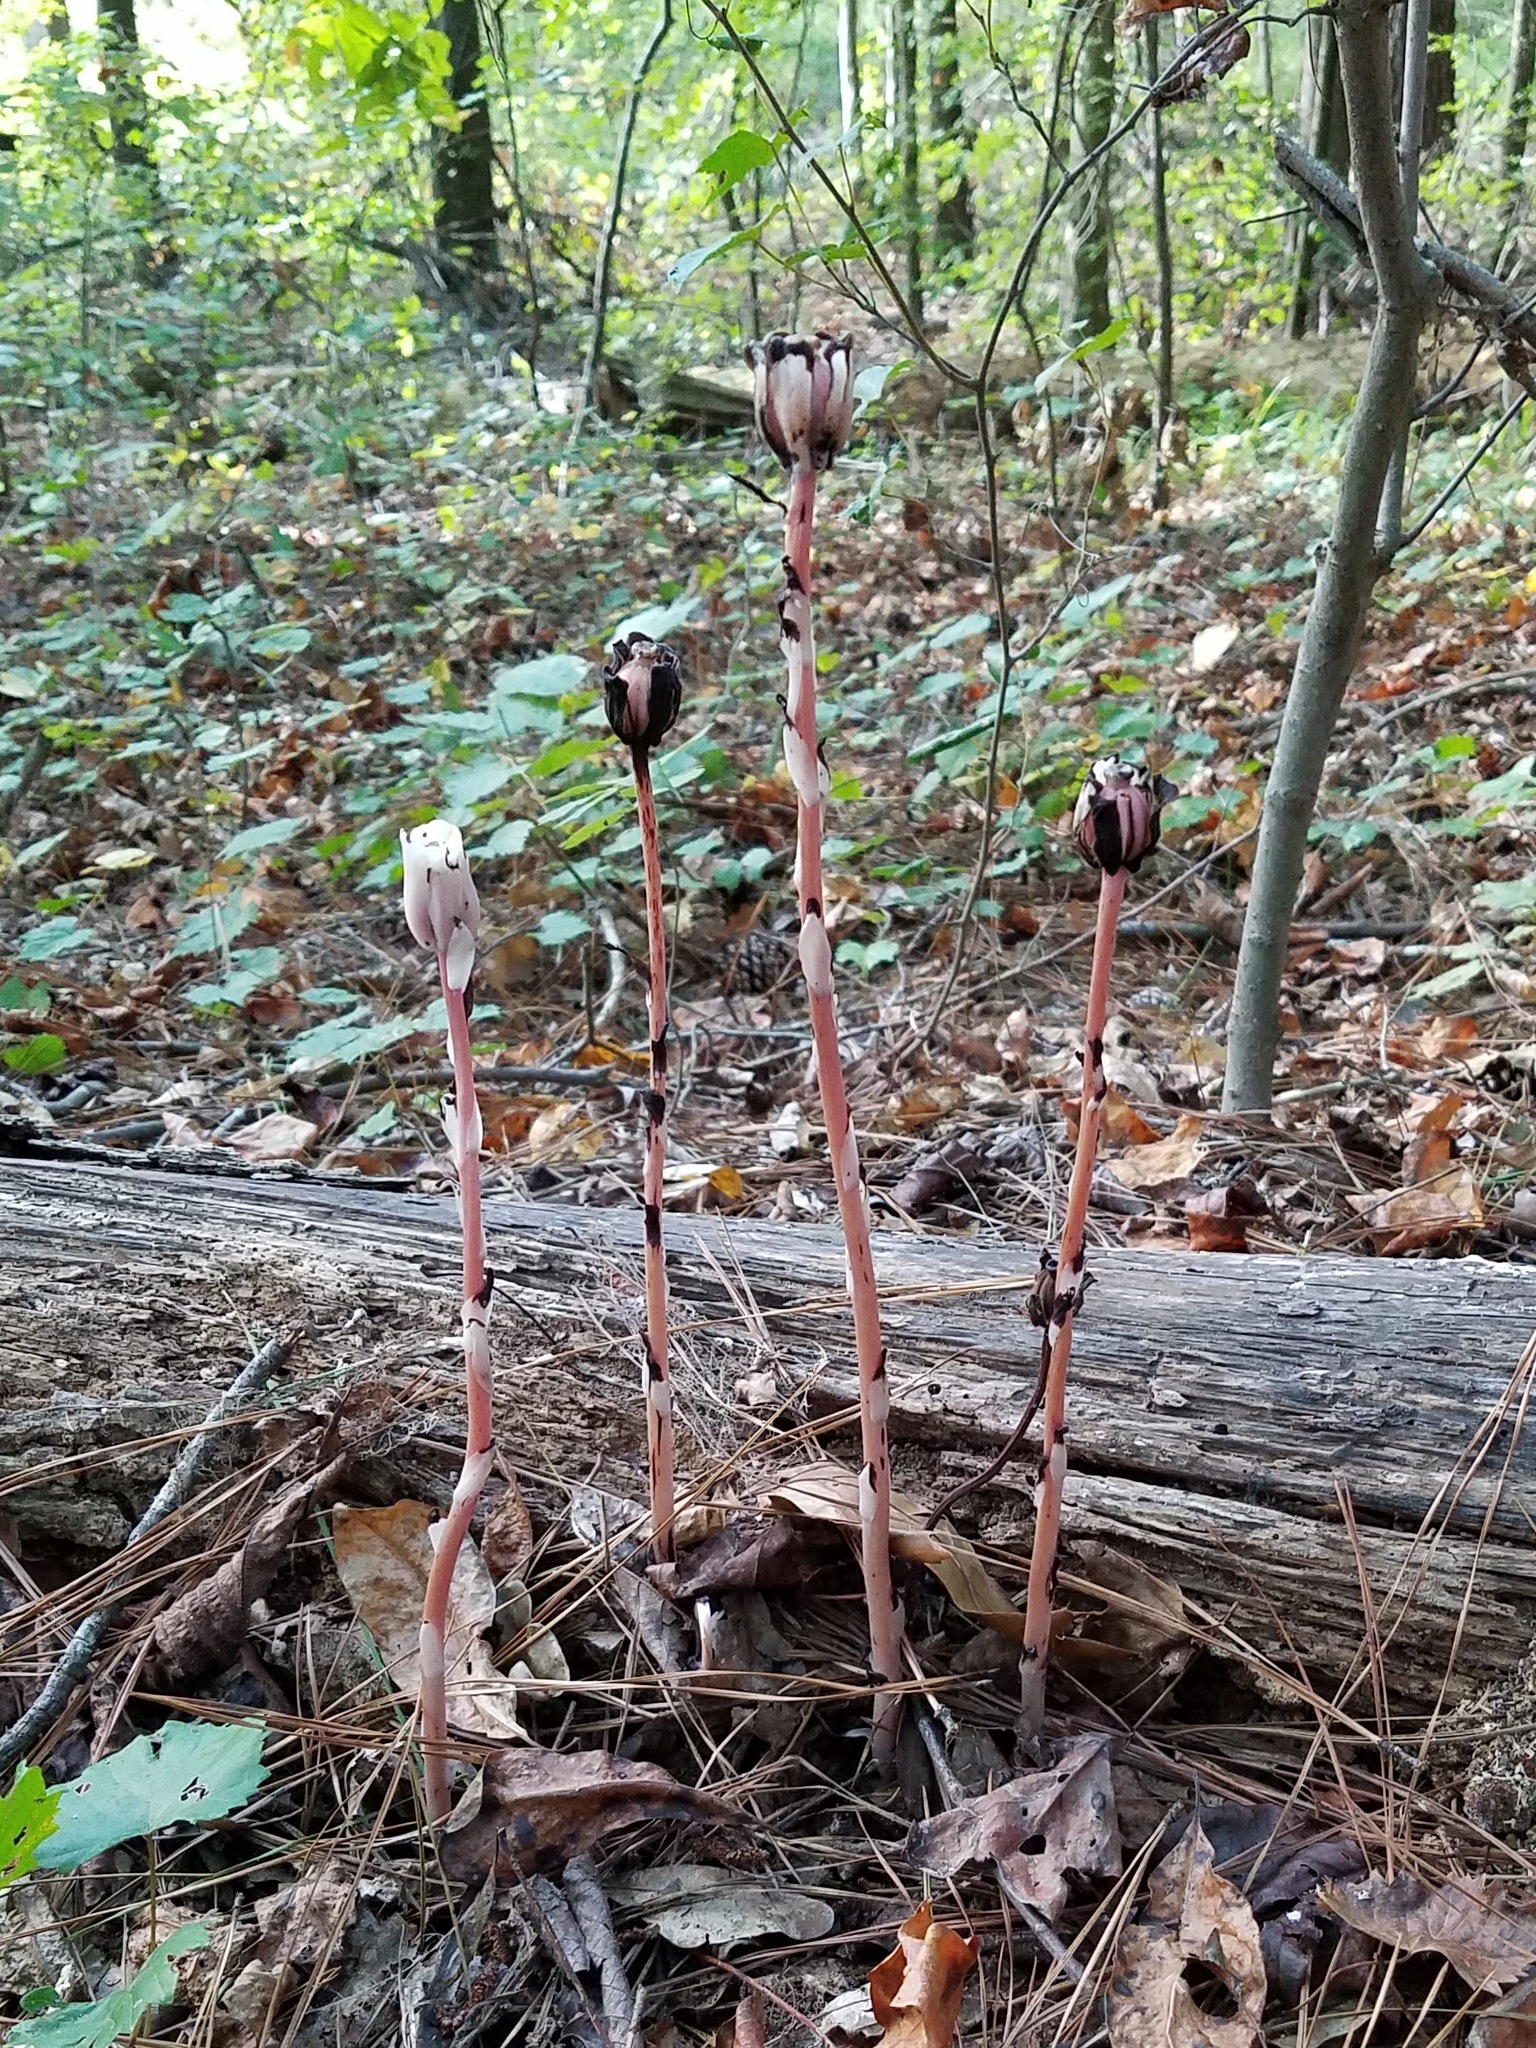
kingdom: Plantae
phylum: Tracheophyta
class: Magnoliopsida
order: Ericales
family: Ericaceae
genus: Monotropa
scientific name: Monotropa uniflora
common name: Convulsion root
